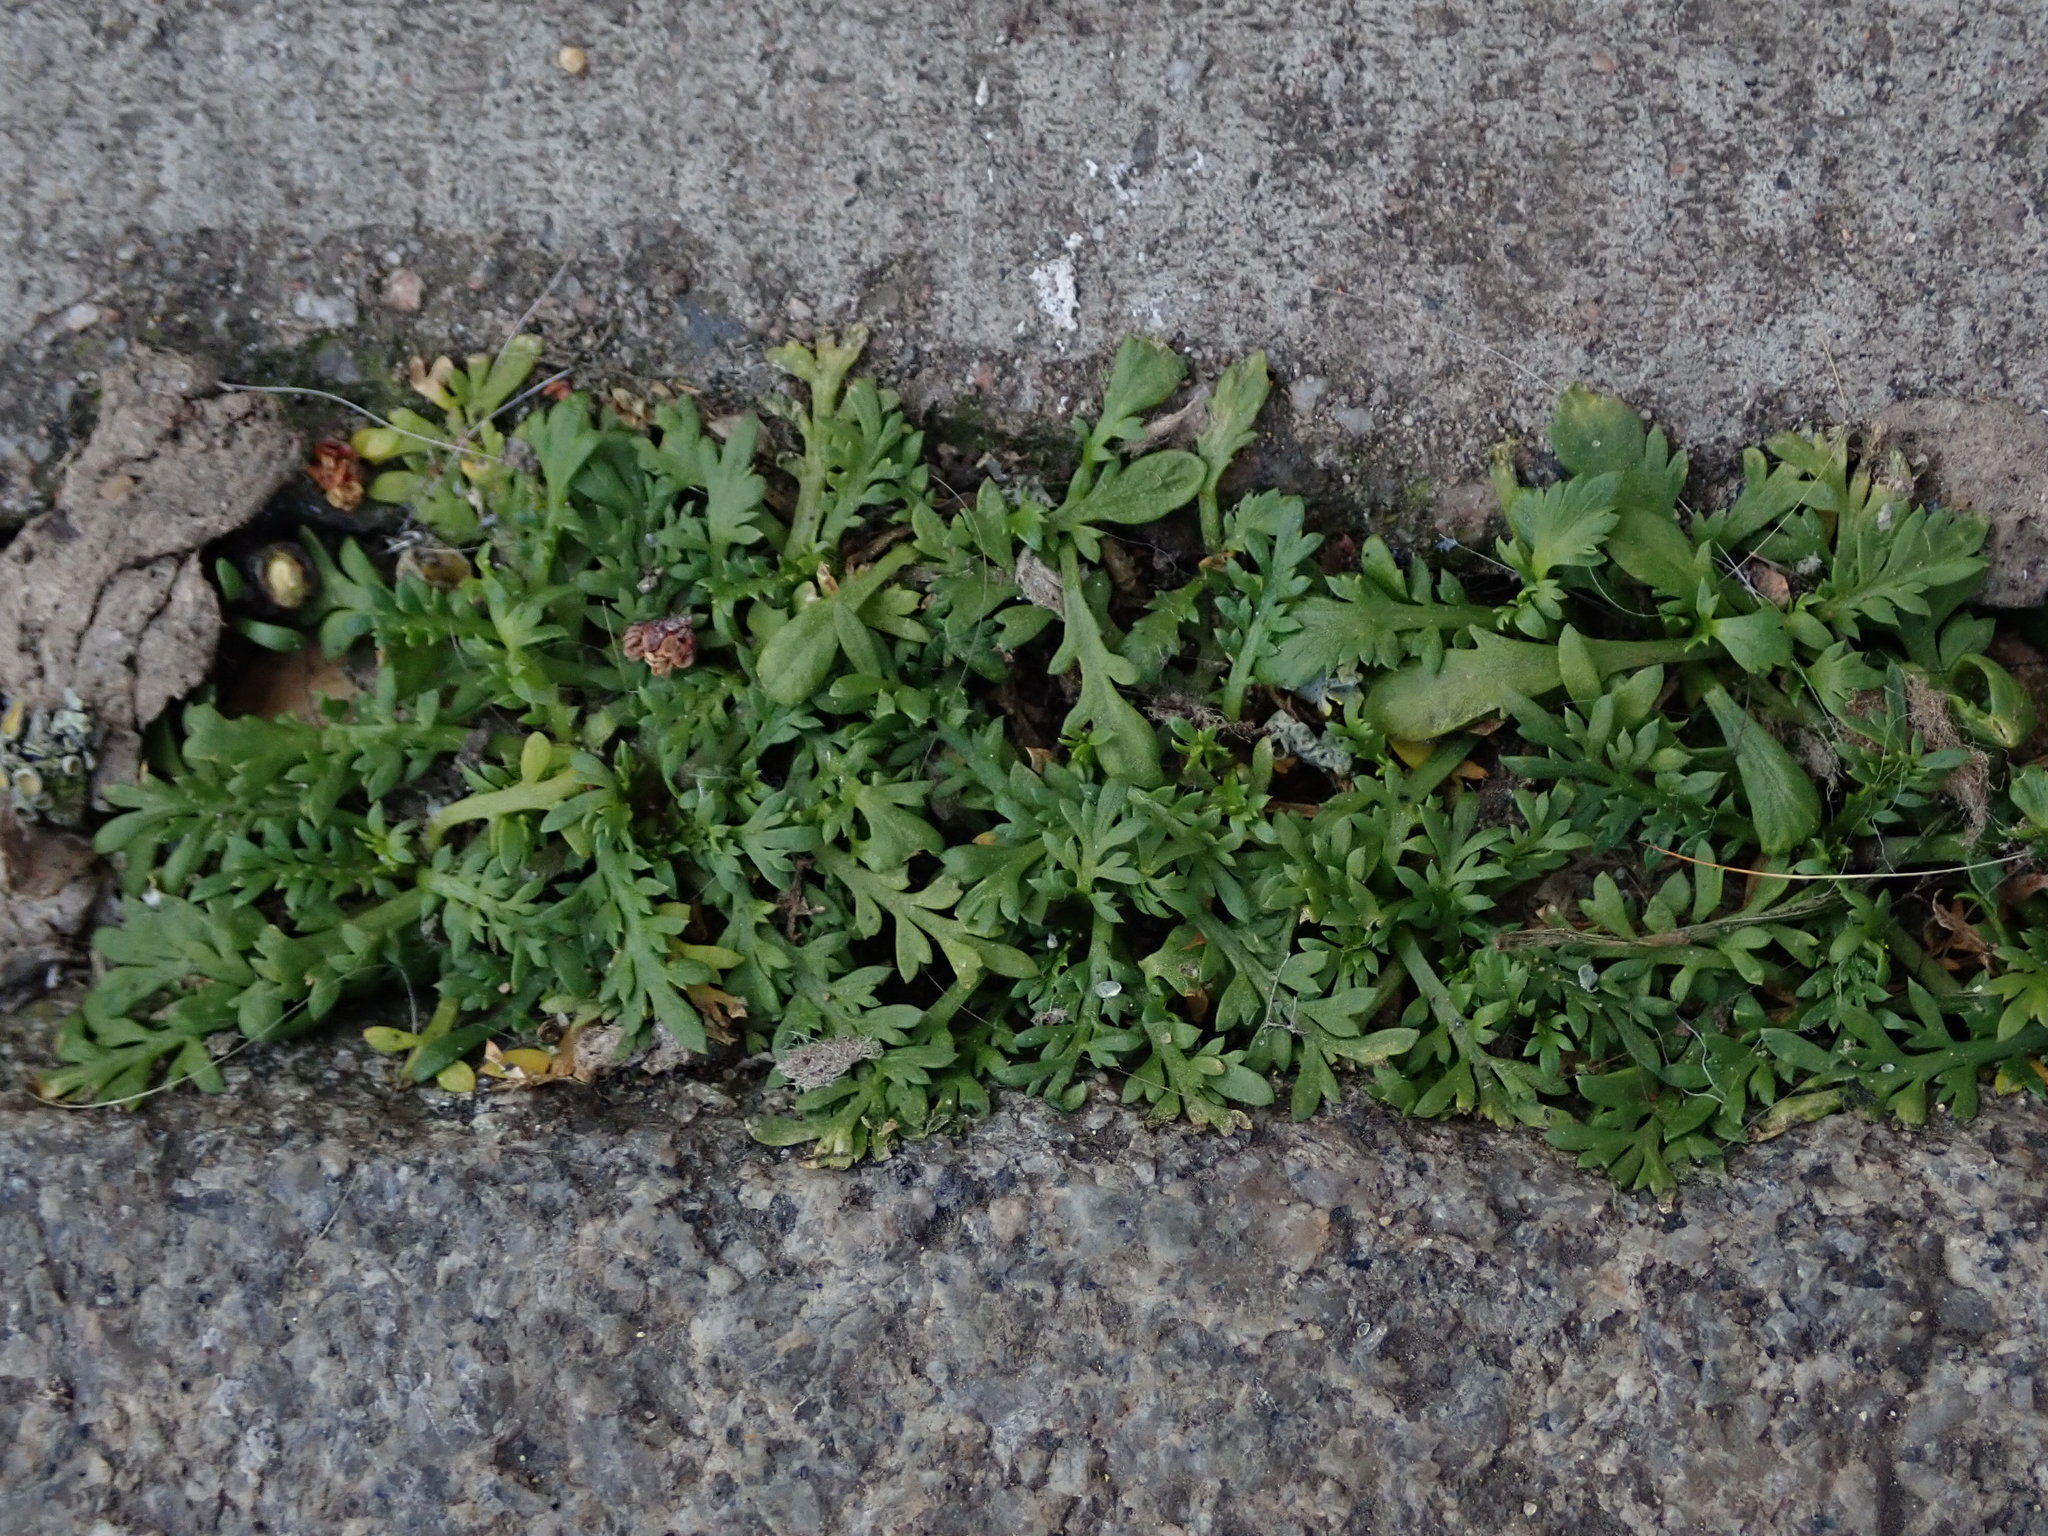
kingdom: Plantae
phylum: Tracheophyta
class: Magnoliopsida
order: Brassicales
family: Brassicaceae
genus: Lepidium
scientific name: Lepidium didymum
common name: Lesser swinecress
